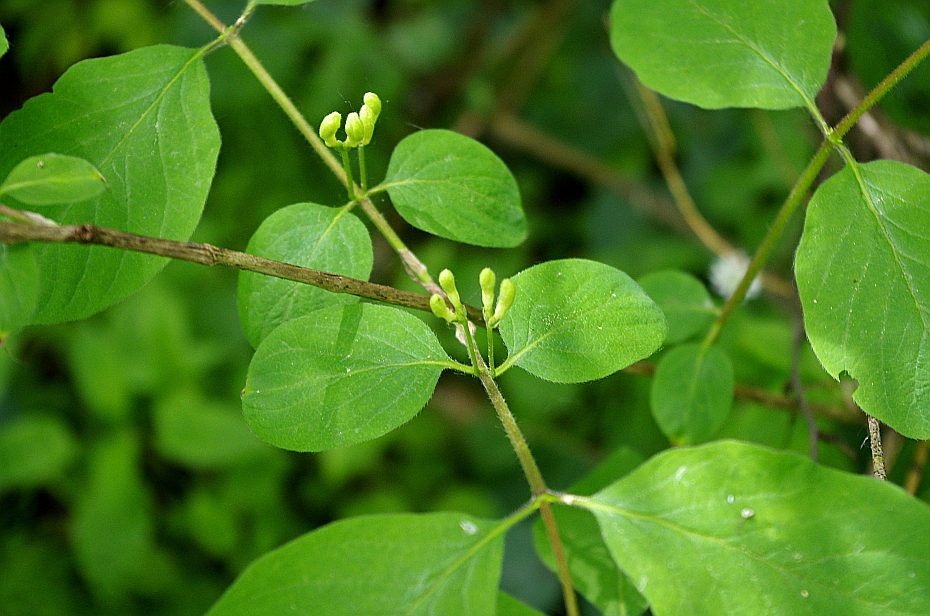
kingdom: Plantae
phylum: Tracheophyta
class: Magnoliopsida
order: Dipsacales
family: Caprifoliaceae
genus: Lonicera
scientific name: Lonicera xylosteum
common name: Fly honeysuckle
